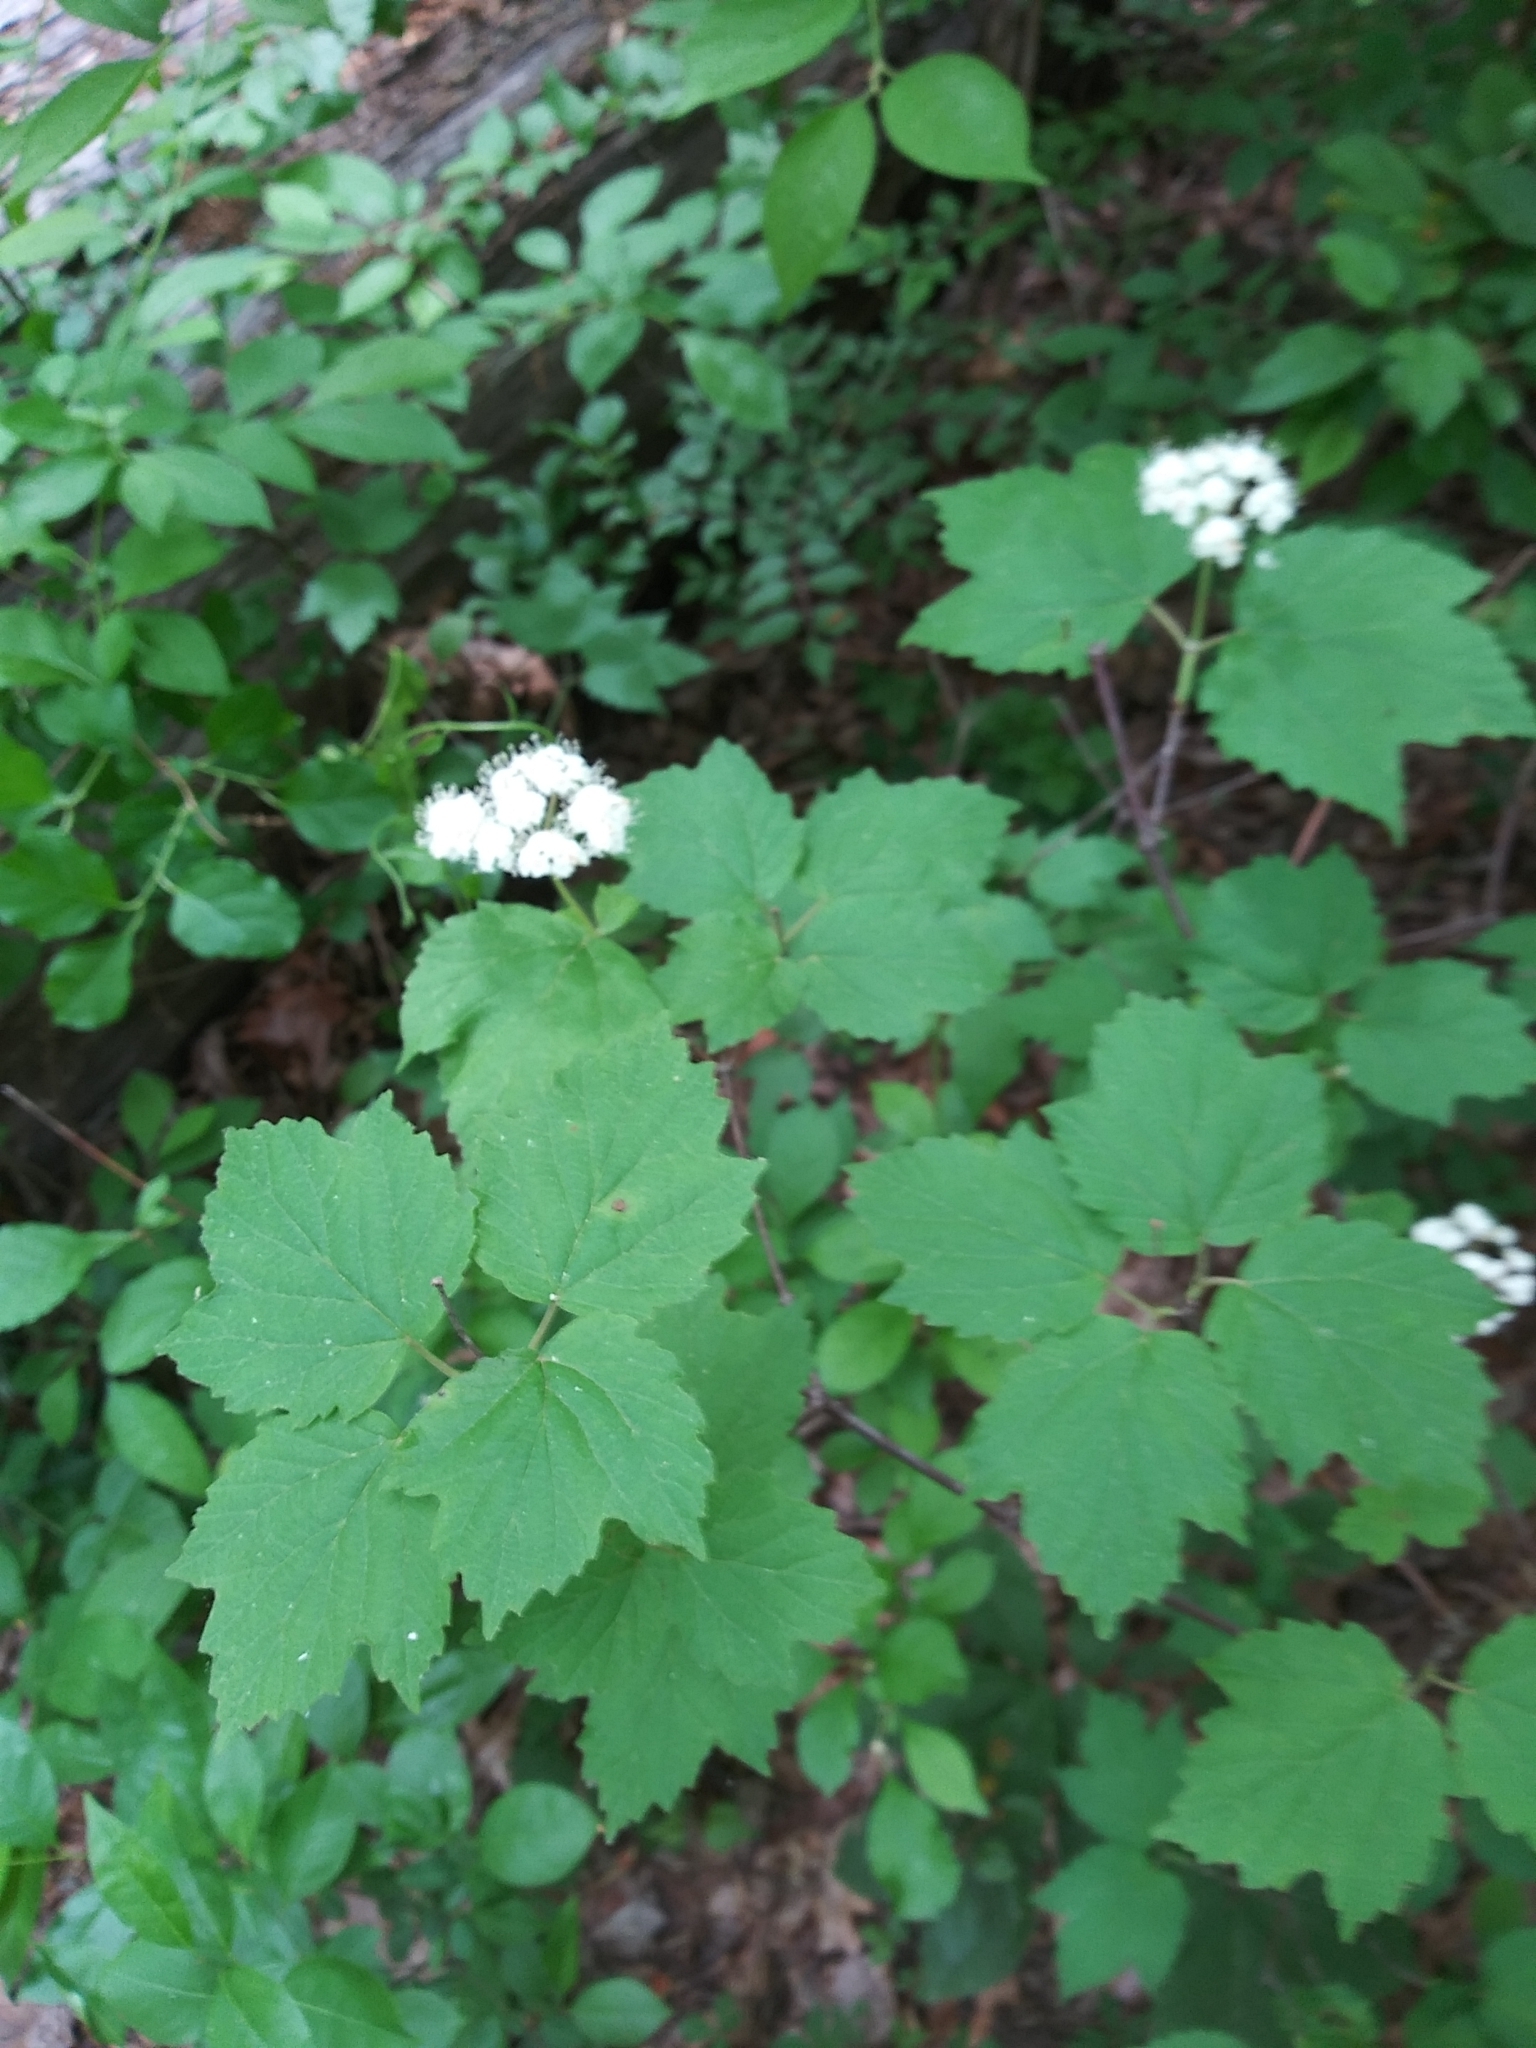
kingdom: Plantae
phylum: Tracheophyta
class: Magnoliopsida
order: Dipsacales
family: Viburnaceae
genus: Viburnum
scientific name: Viburnum acerifolium
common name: Dockmackie
